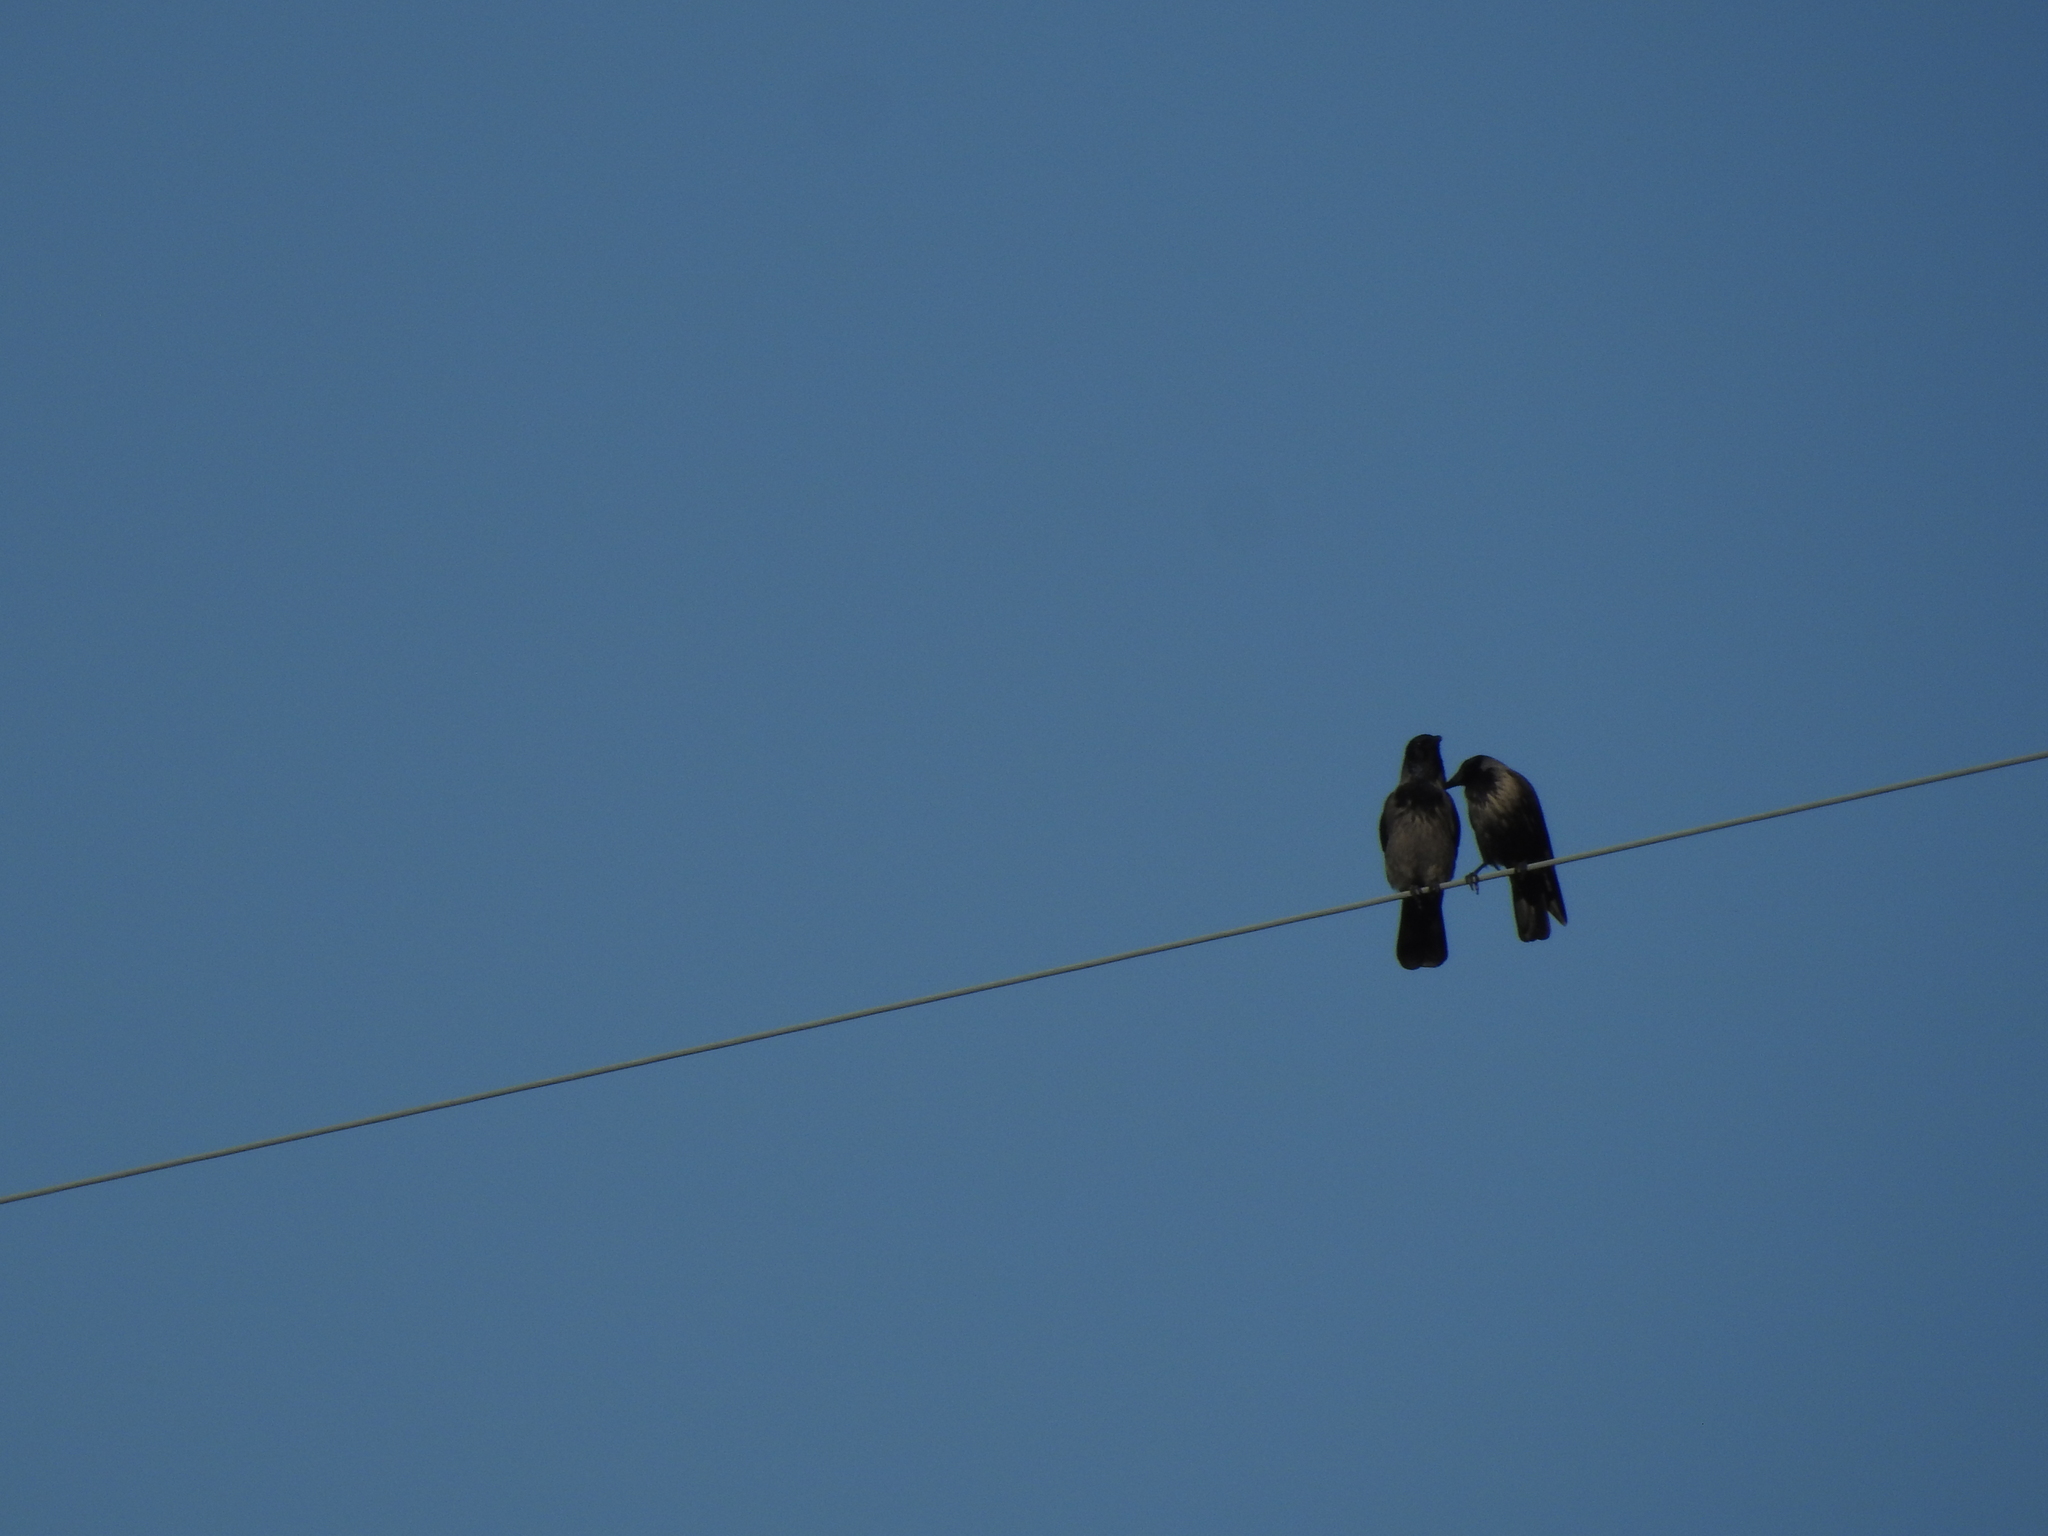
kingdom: Animalia
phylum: Chordata
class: Aves
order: Passeriformes
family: Corvidae
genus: Corvus
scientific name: Corvus cornix
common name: Hooded crow
